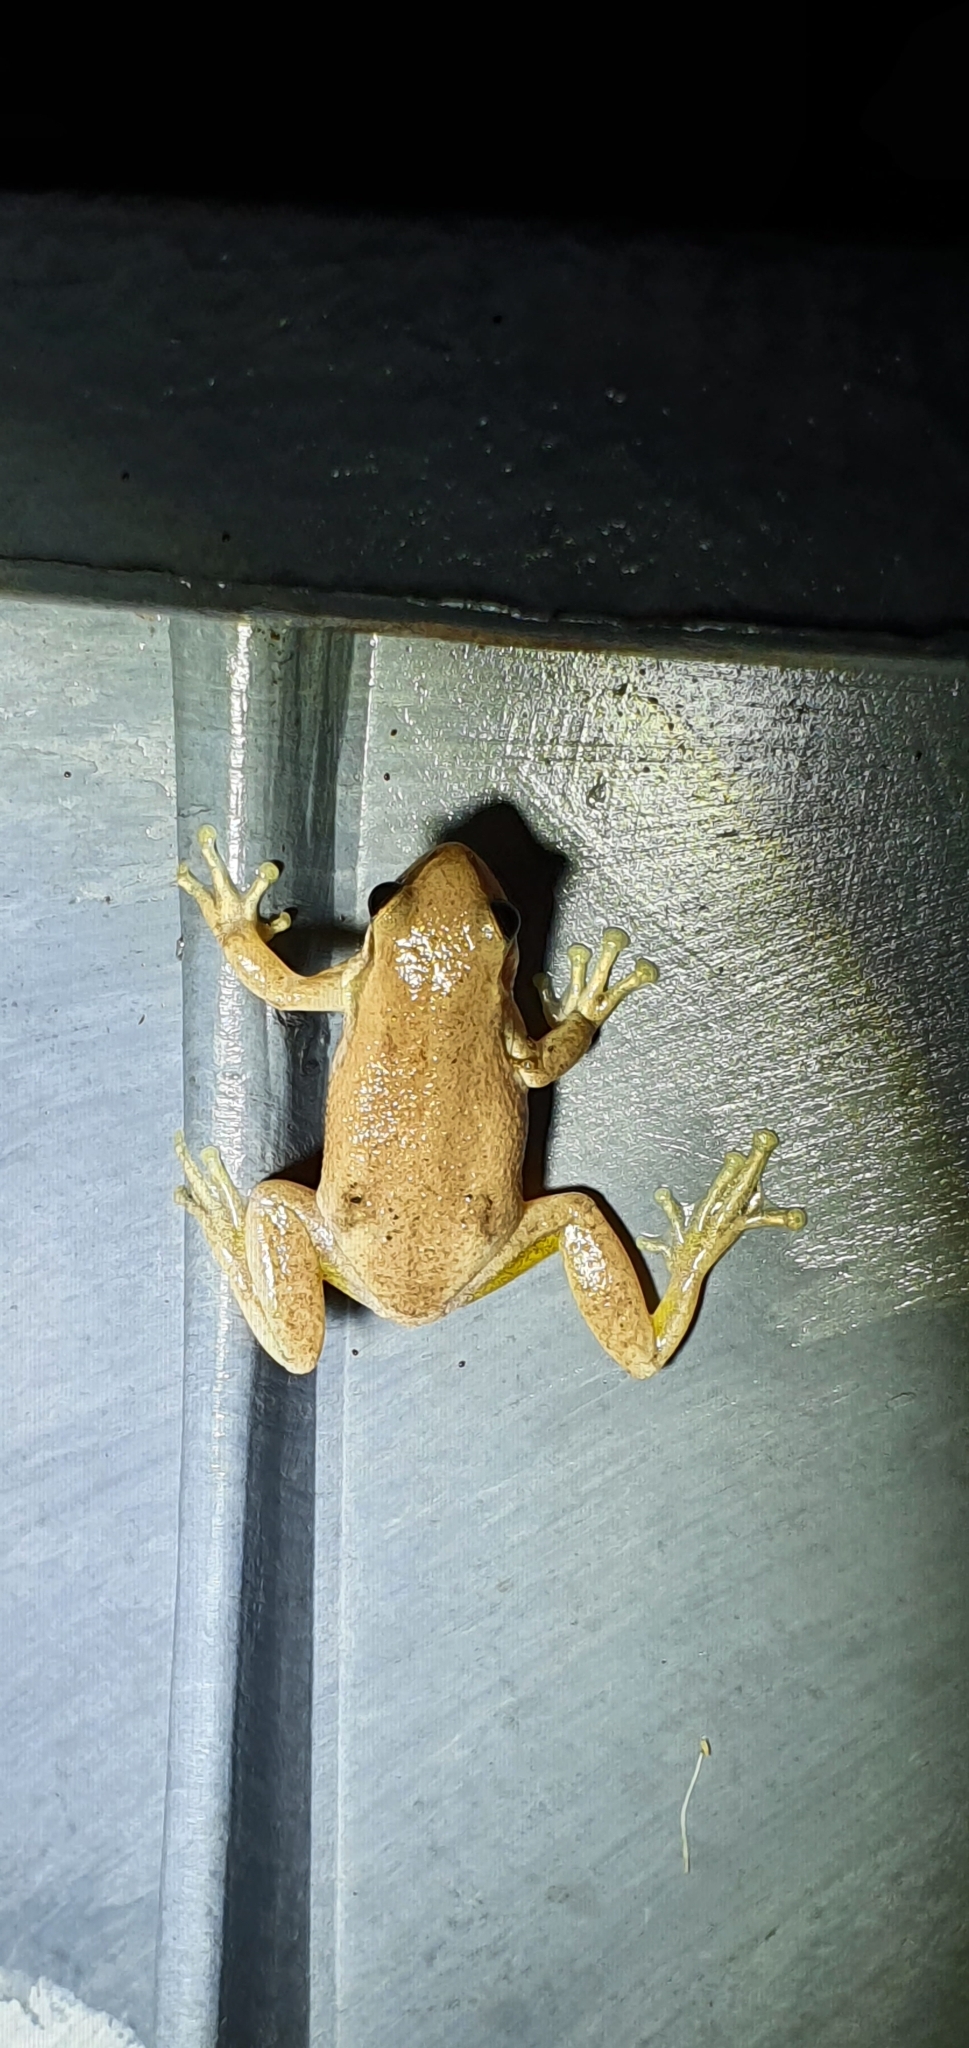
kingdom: Animalia
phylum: Chordata
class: Amphibia
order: Anura
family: Pelodryadidae
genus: Litoria
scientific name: Litoria rubella
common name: Desert tree frog
